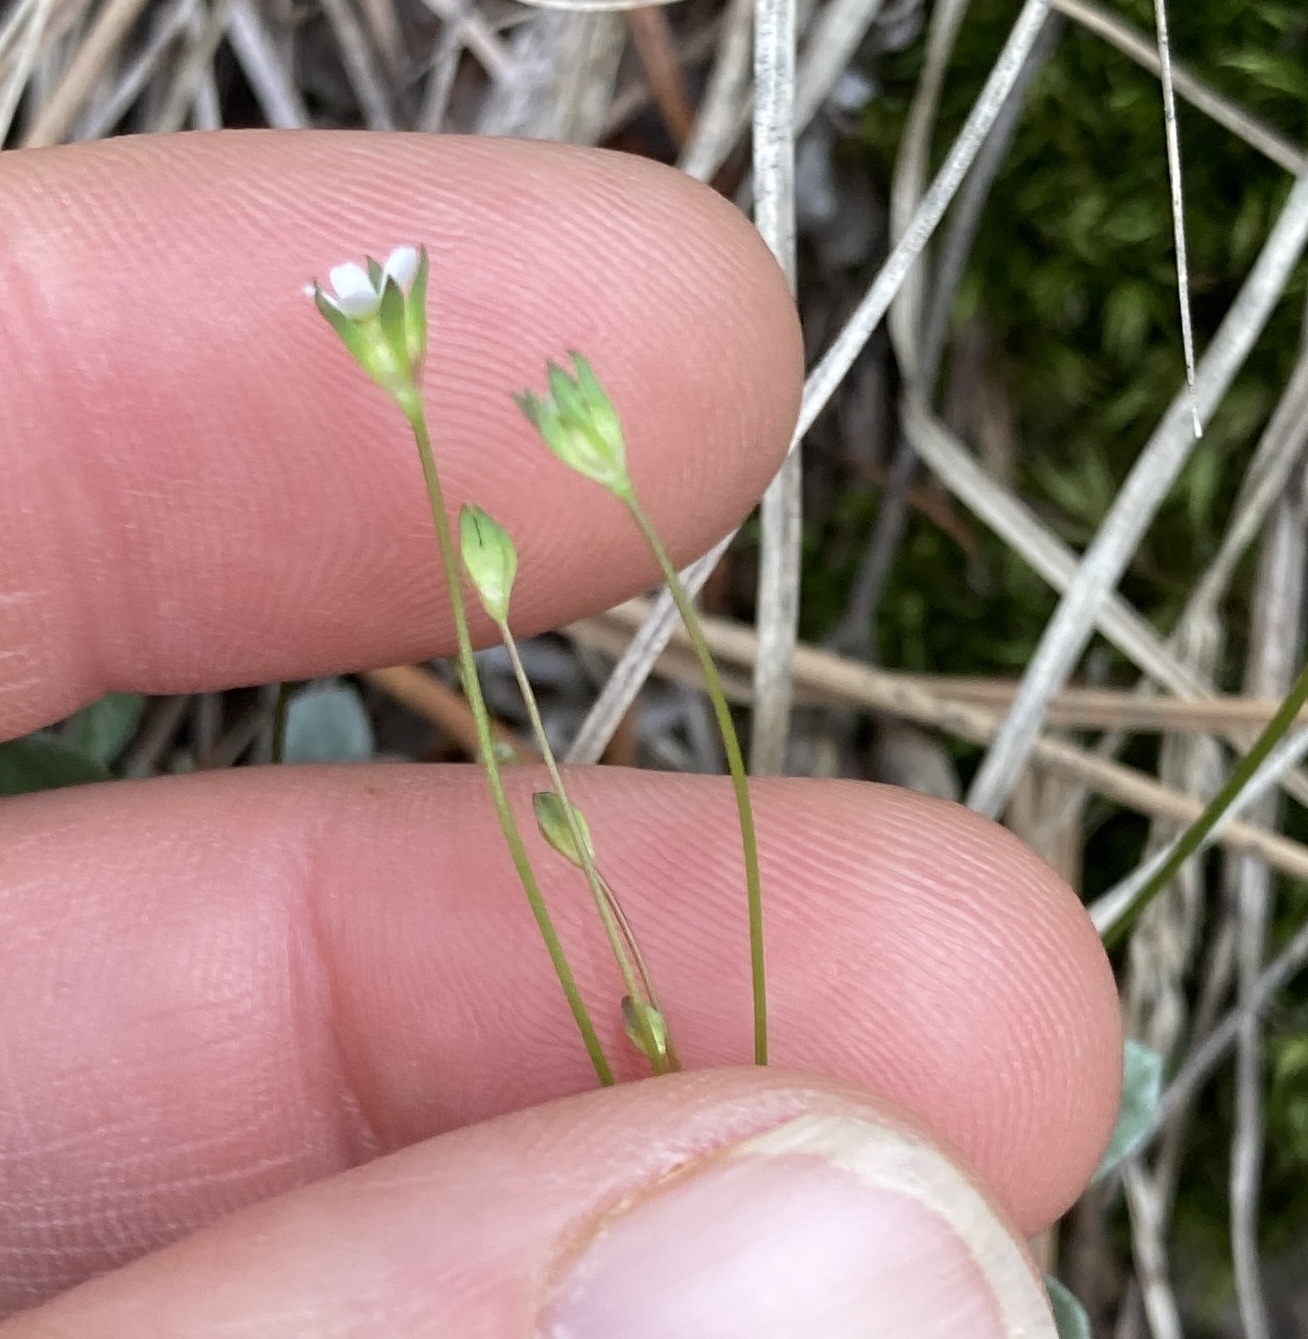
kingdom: Plantae
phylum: Tracheophyta
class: Magnoliopsida
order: Ericales
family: Primulaceae
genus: Androsace
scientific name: Androsace septentrionalis
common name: Hairy northern fairy-candelabra
